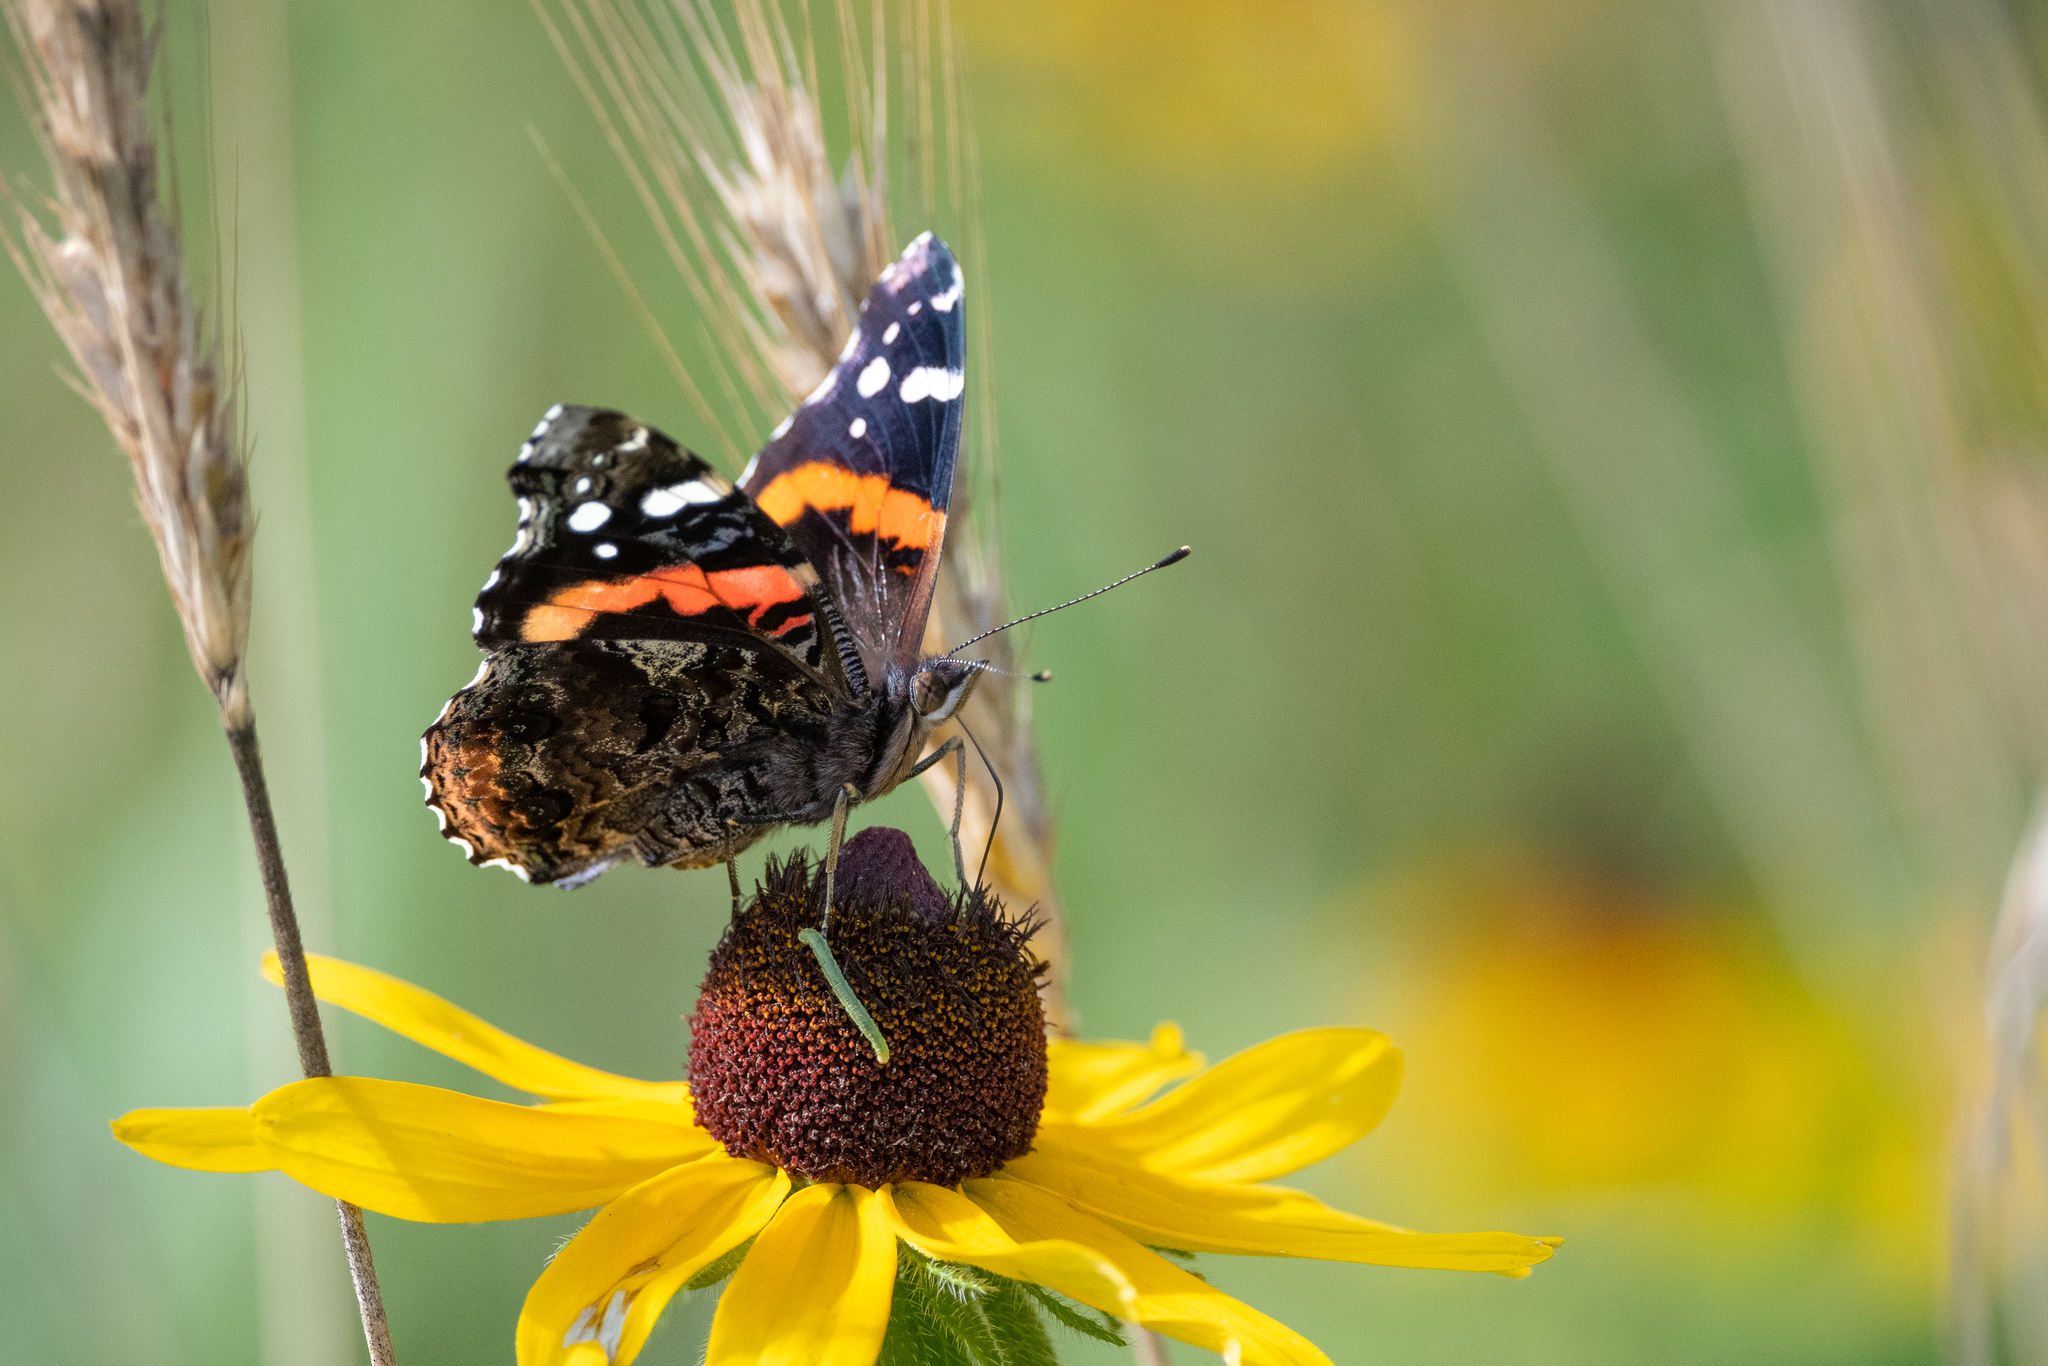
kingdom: Animalia
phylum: Arthropoda
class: Insecta
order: Lepidoptera
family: Nymphalidae
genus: Vanessa
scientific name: Vanessa atalanta
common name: Red admiral
